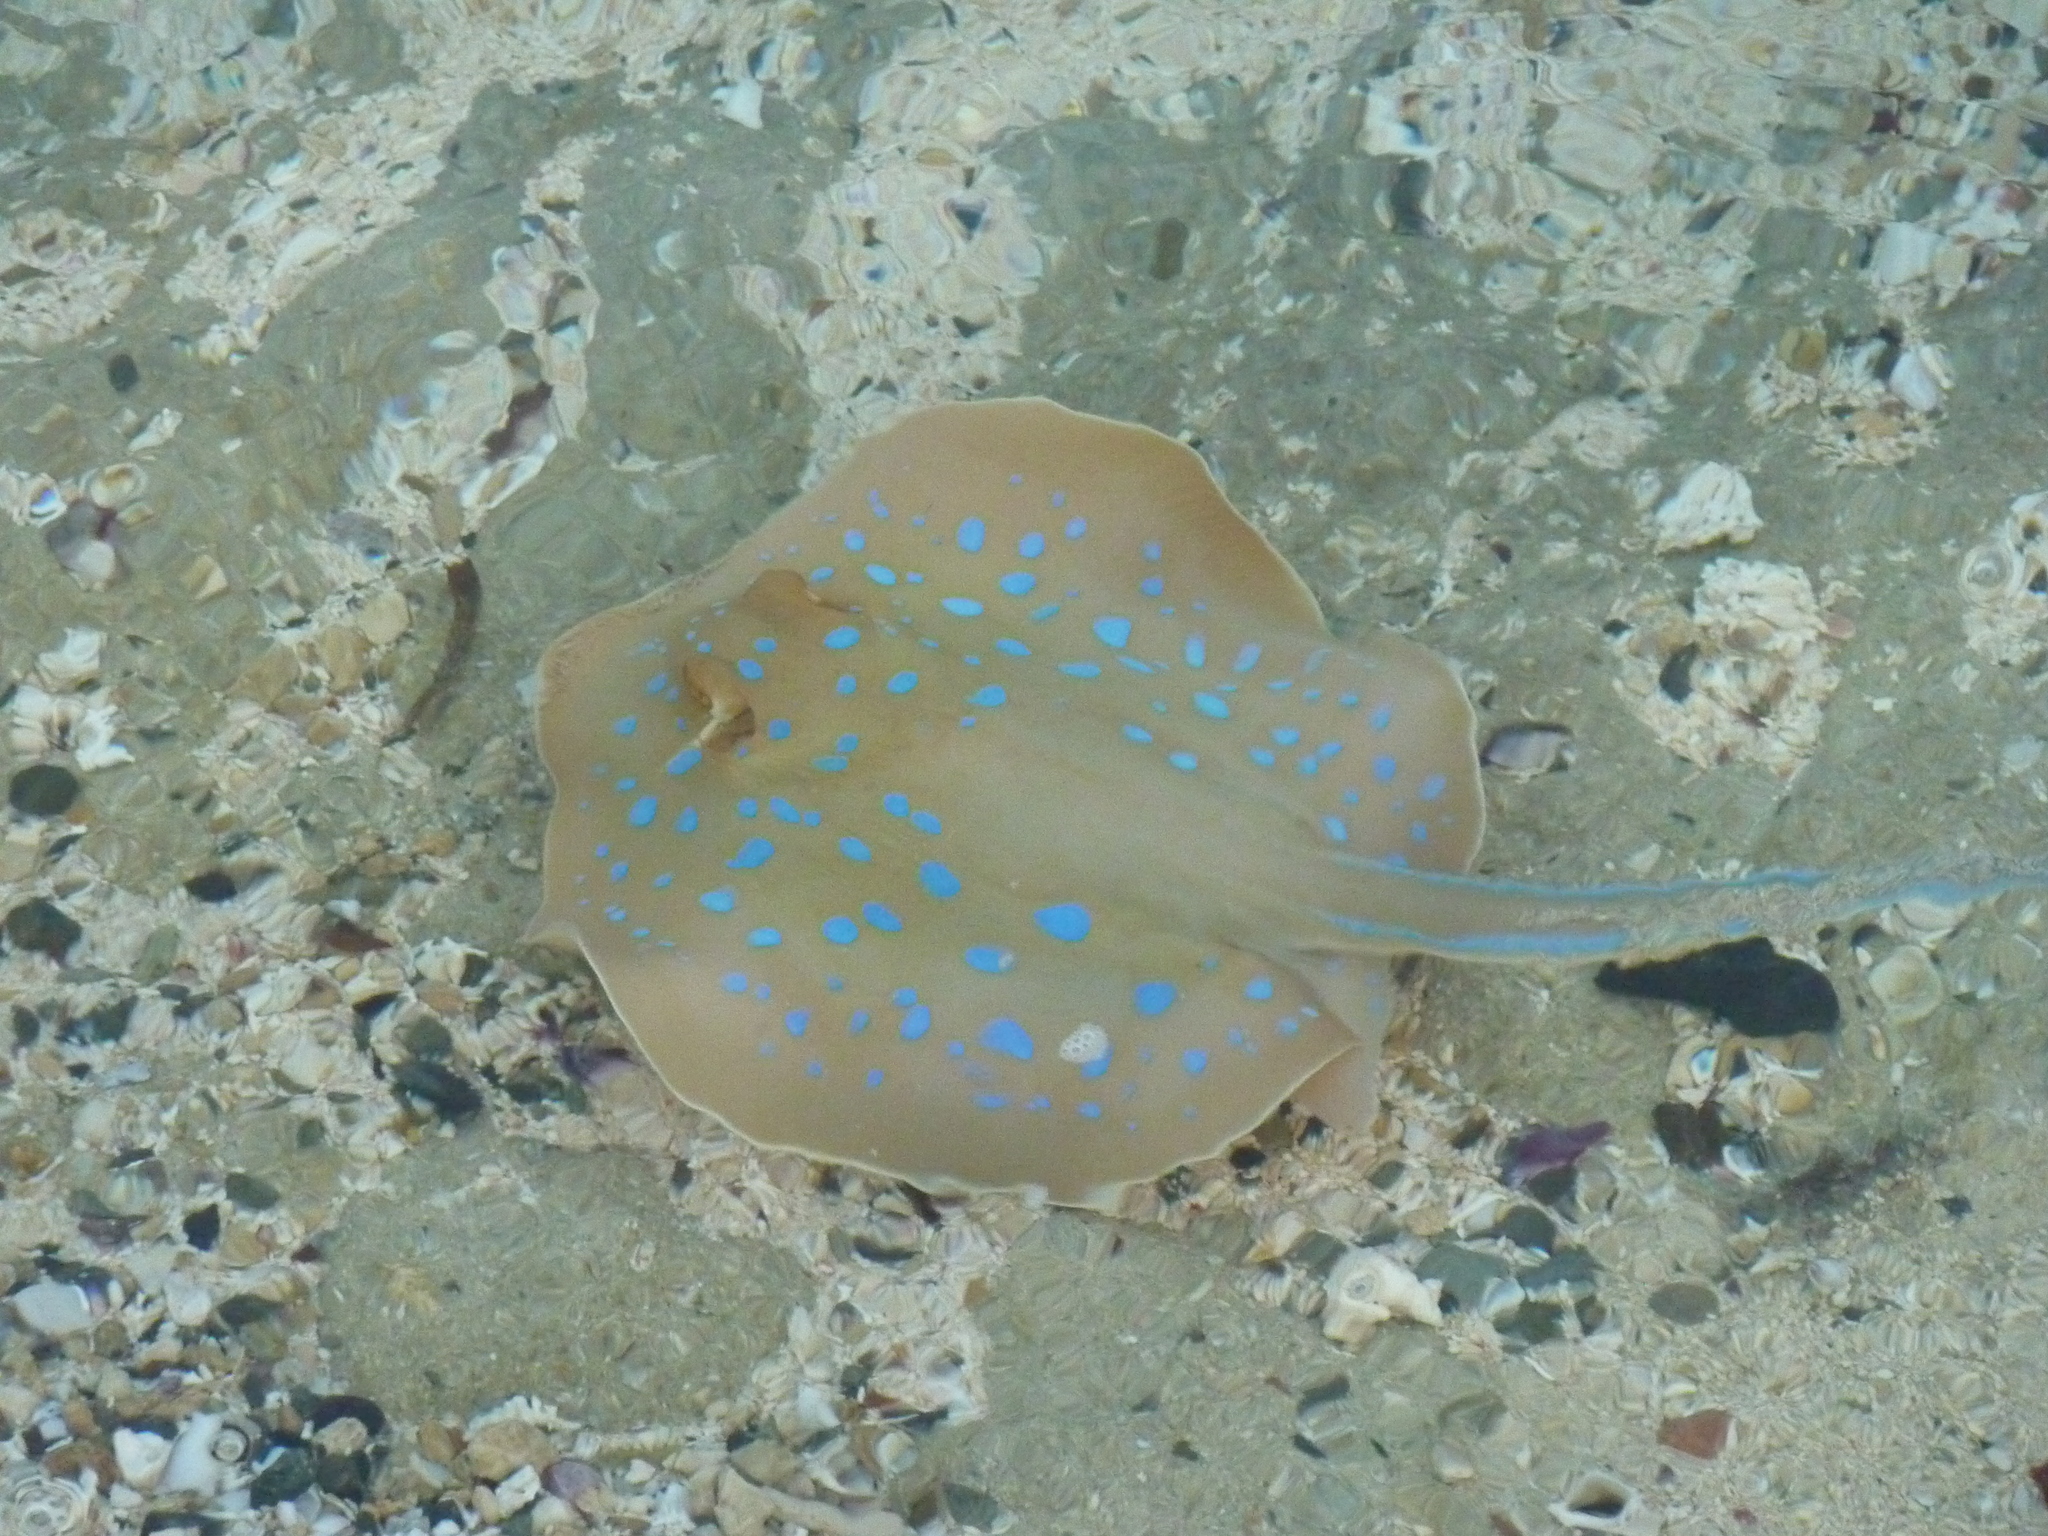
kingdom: Animalia
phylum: Chordata
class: Elasmobranchii
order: Myliobatiformes
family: Dasyatidae
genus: Taeniura
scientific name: Taeniura lymma
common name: Bluespotted ribbontail ray
